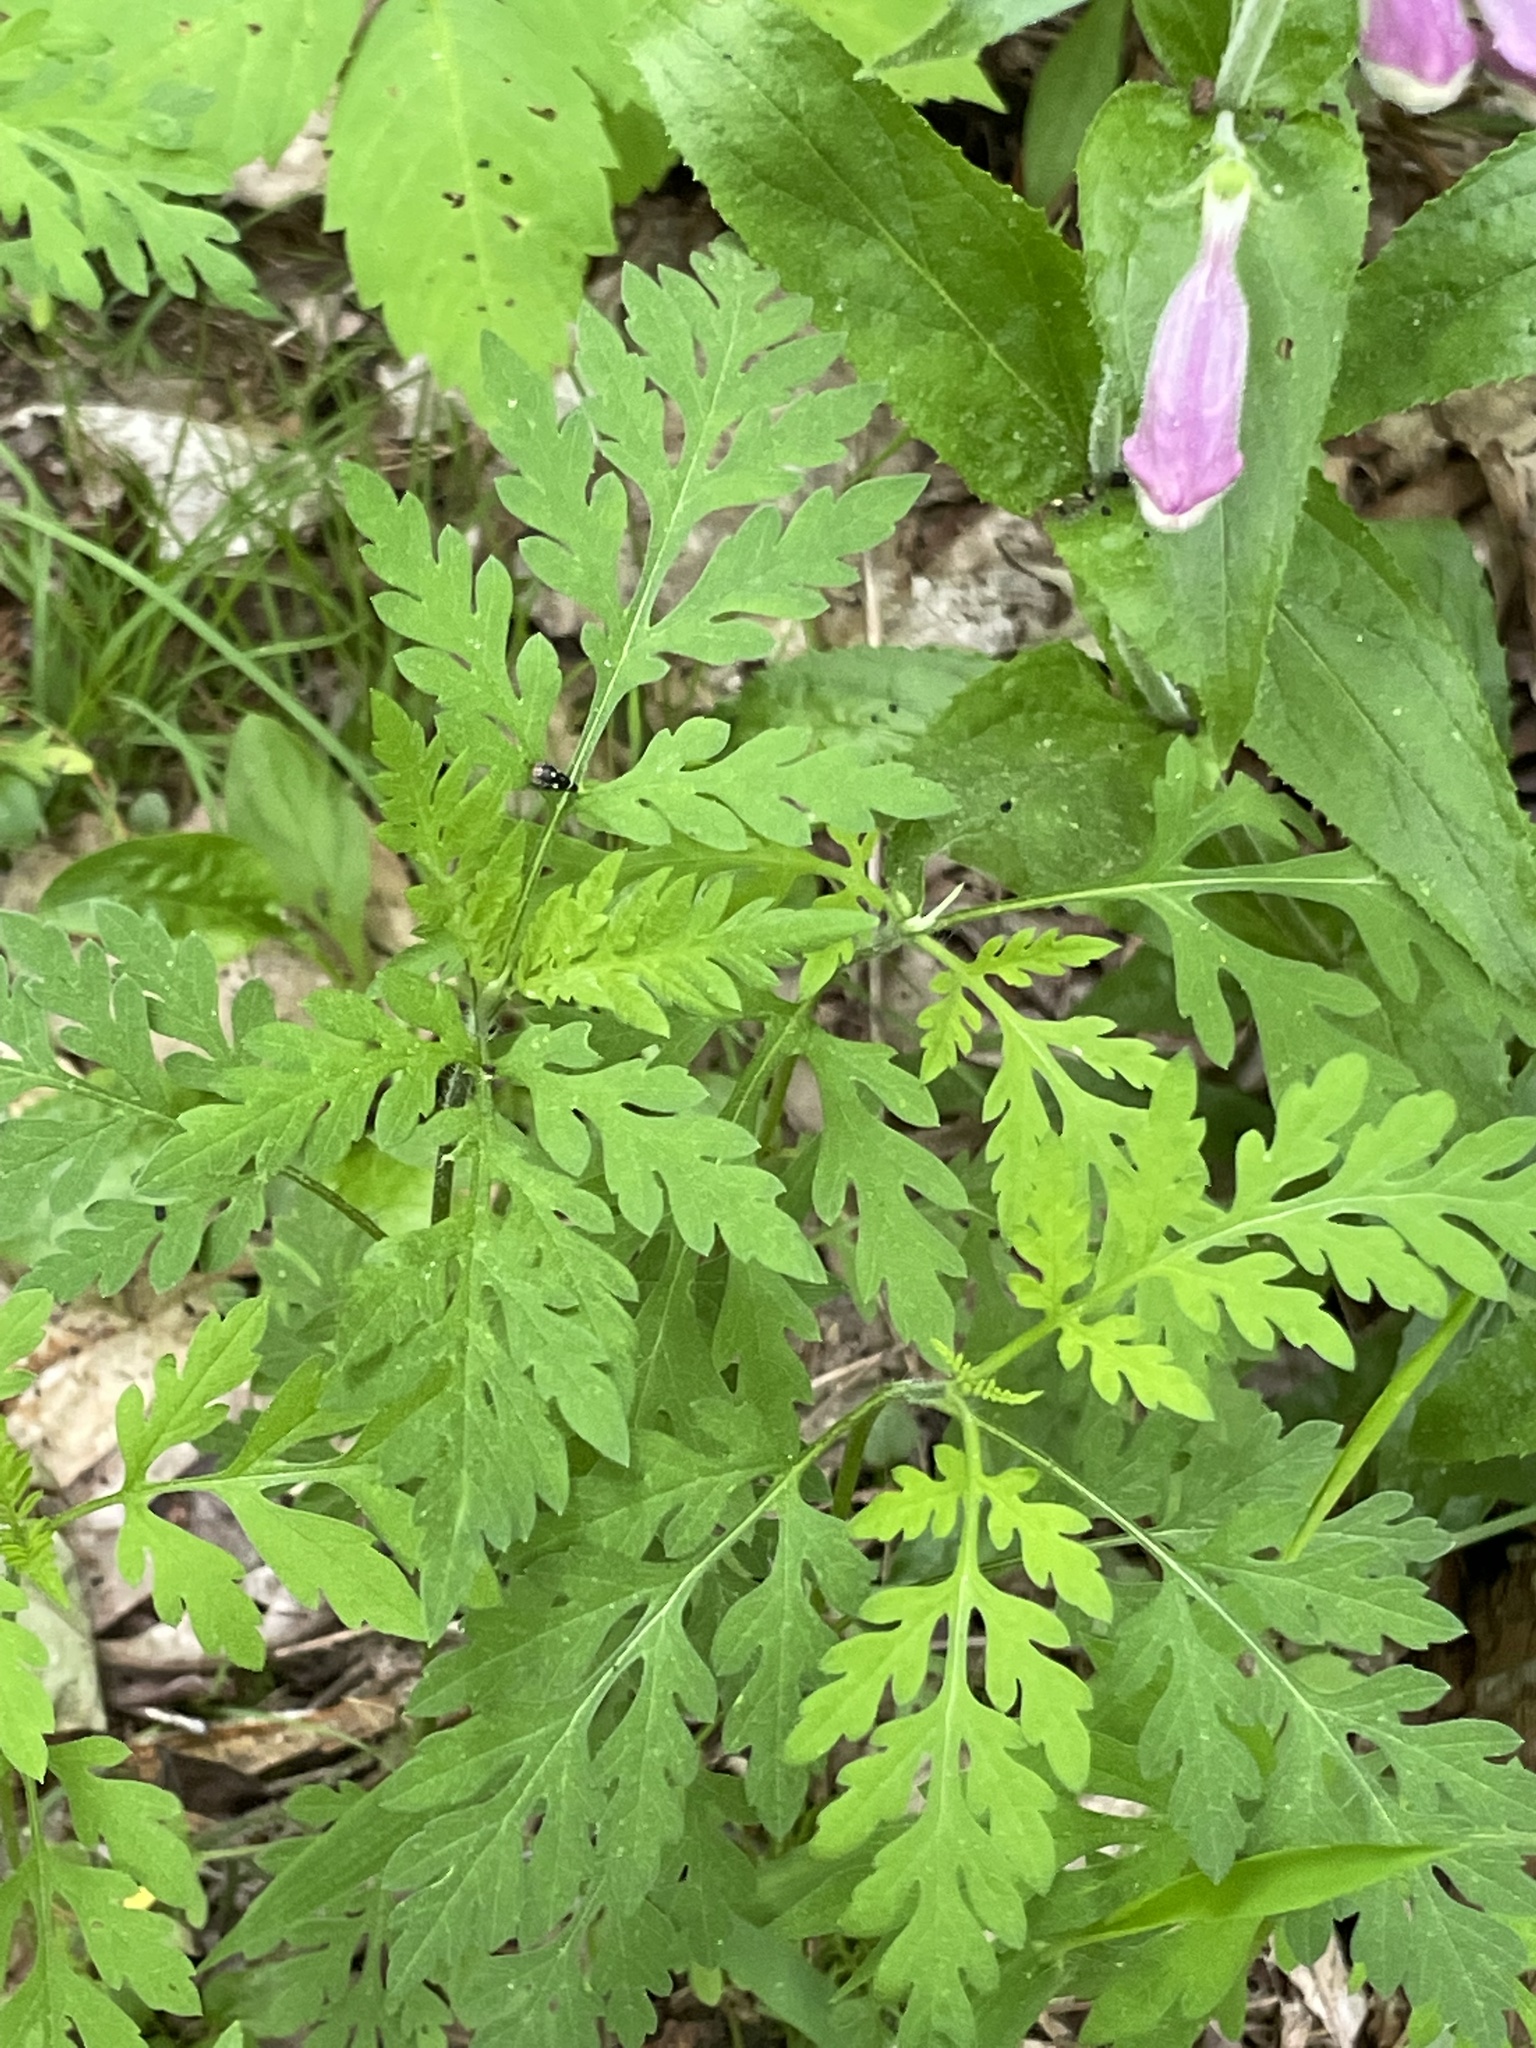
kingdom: Plantae
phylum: Tracheophyta
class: Magnoliopsida
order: Asterales
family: Asteraceae
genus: Ambrosia
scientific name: Ambrosia artemisiifolia
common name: Annual ragweed
